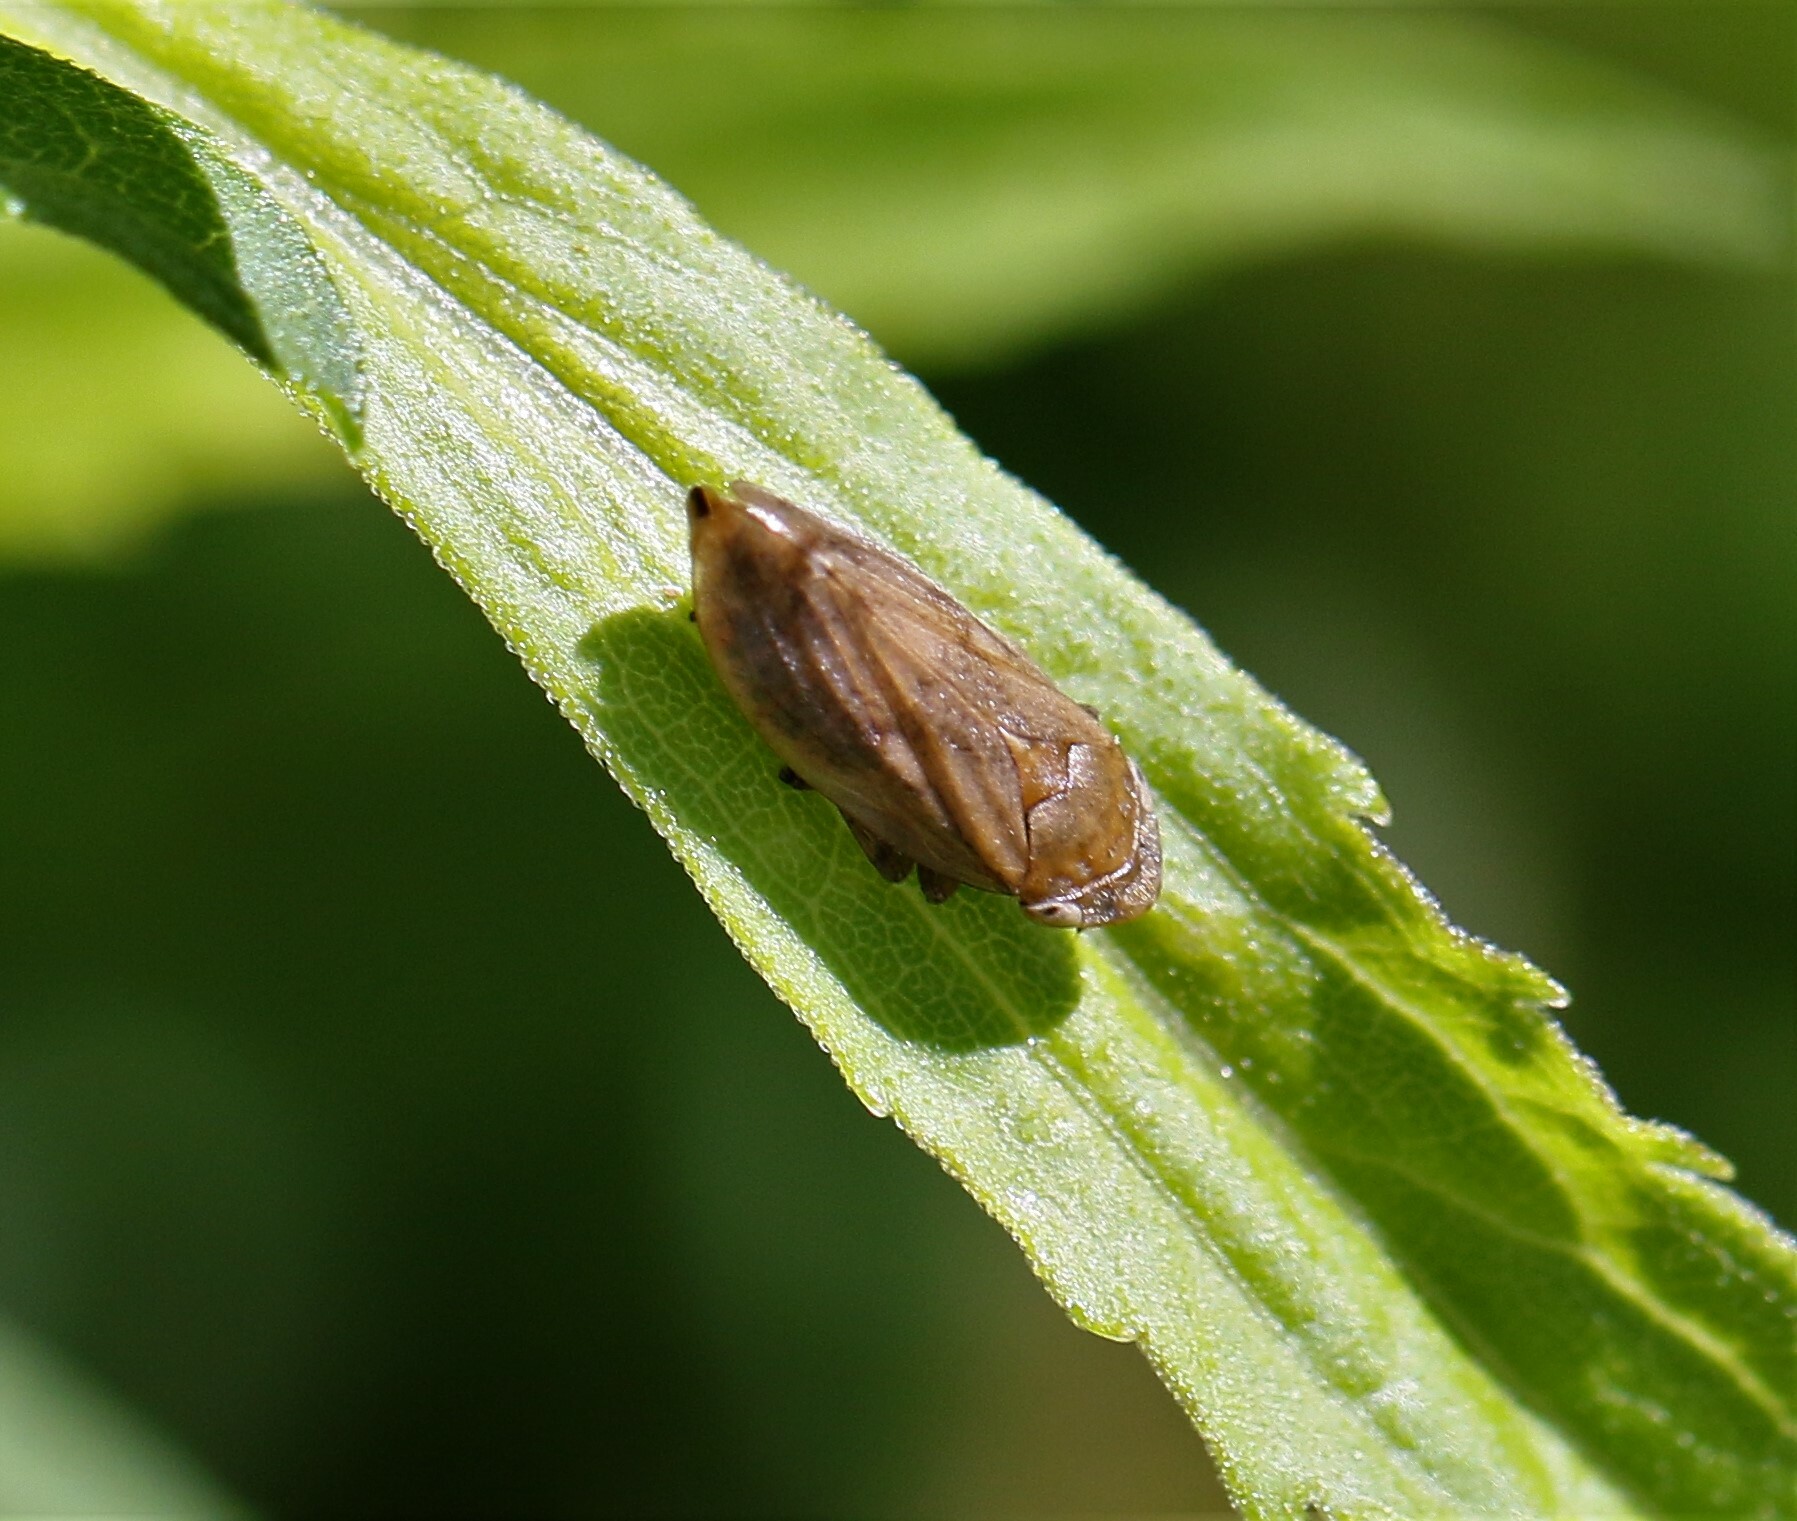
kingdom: Animalia
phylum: Arthropoda
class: Insecta
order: Hemiptera
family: Aphrophoridae
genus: Philaenus
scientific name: Philaenus spumarius
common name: Meadow spittlebug
